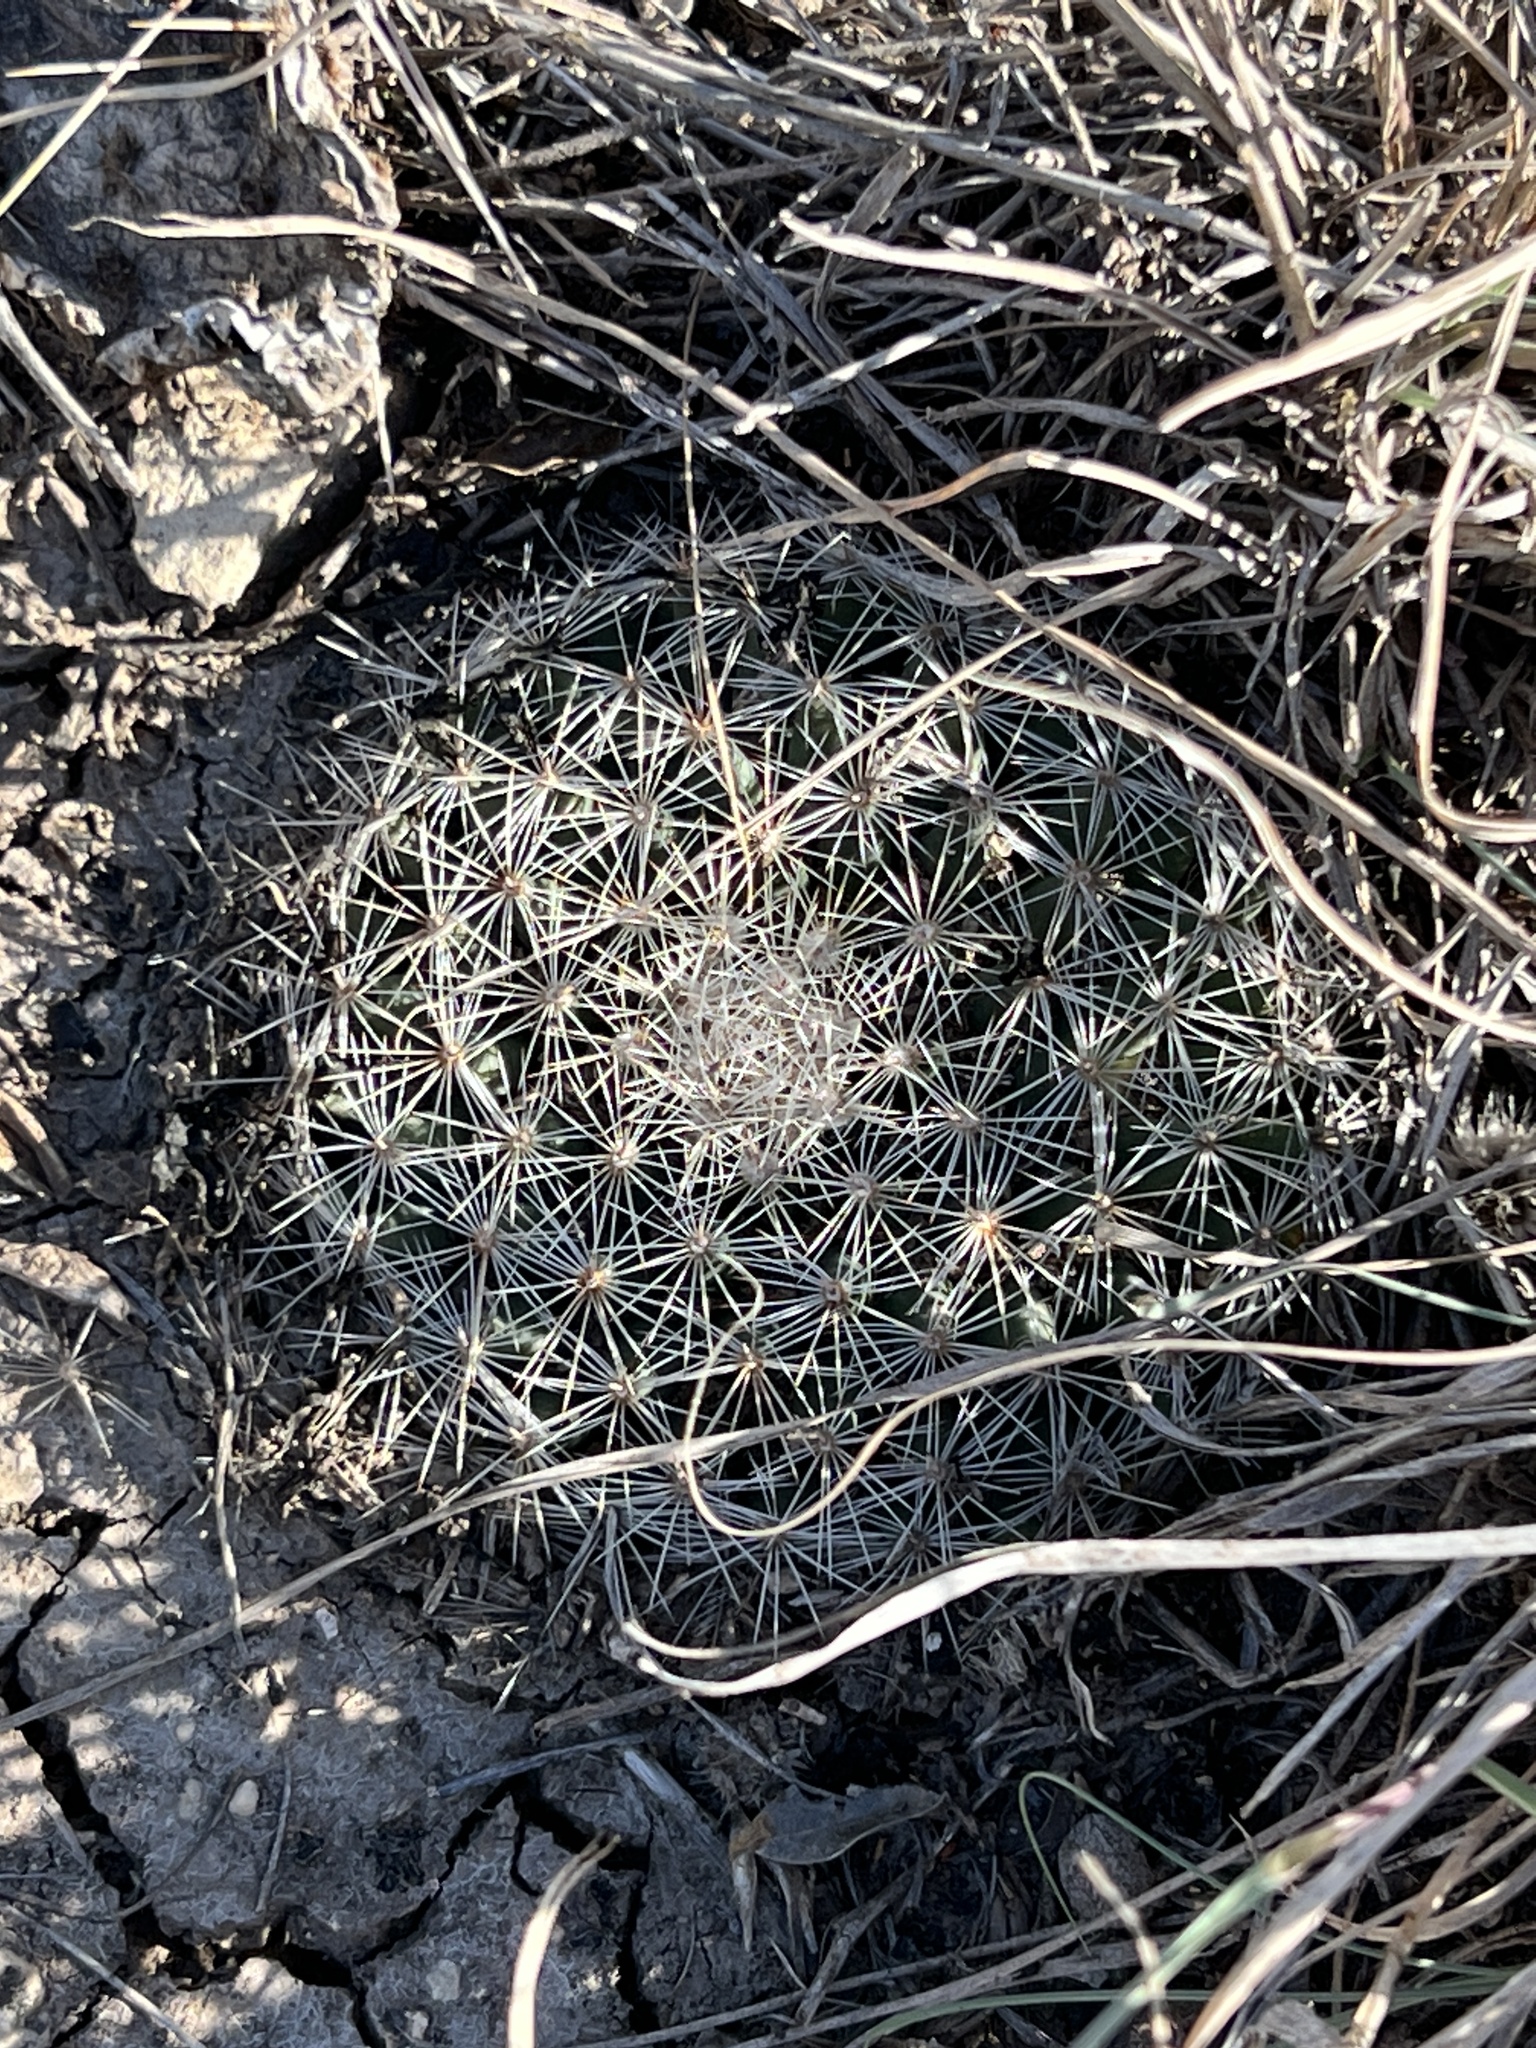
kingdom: Plantae
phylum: Tracheophyta
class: Magnoliopsida
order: Caryophyllales
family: Cactaceae
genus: Mammillaria
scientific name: Mammillaria heyderi
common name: Little nipple cactus
